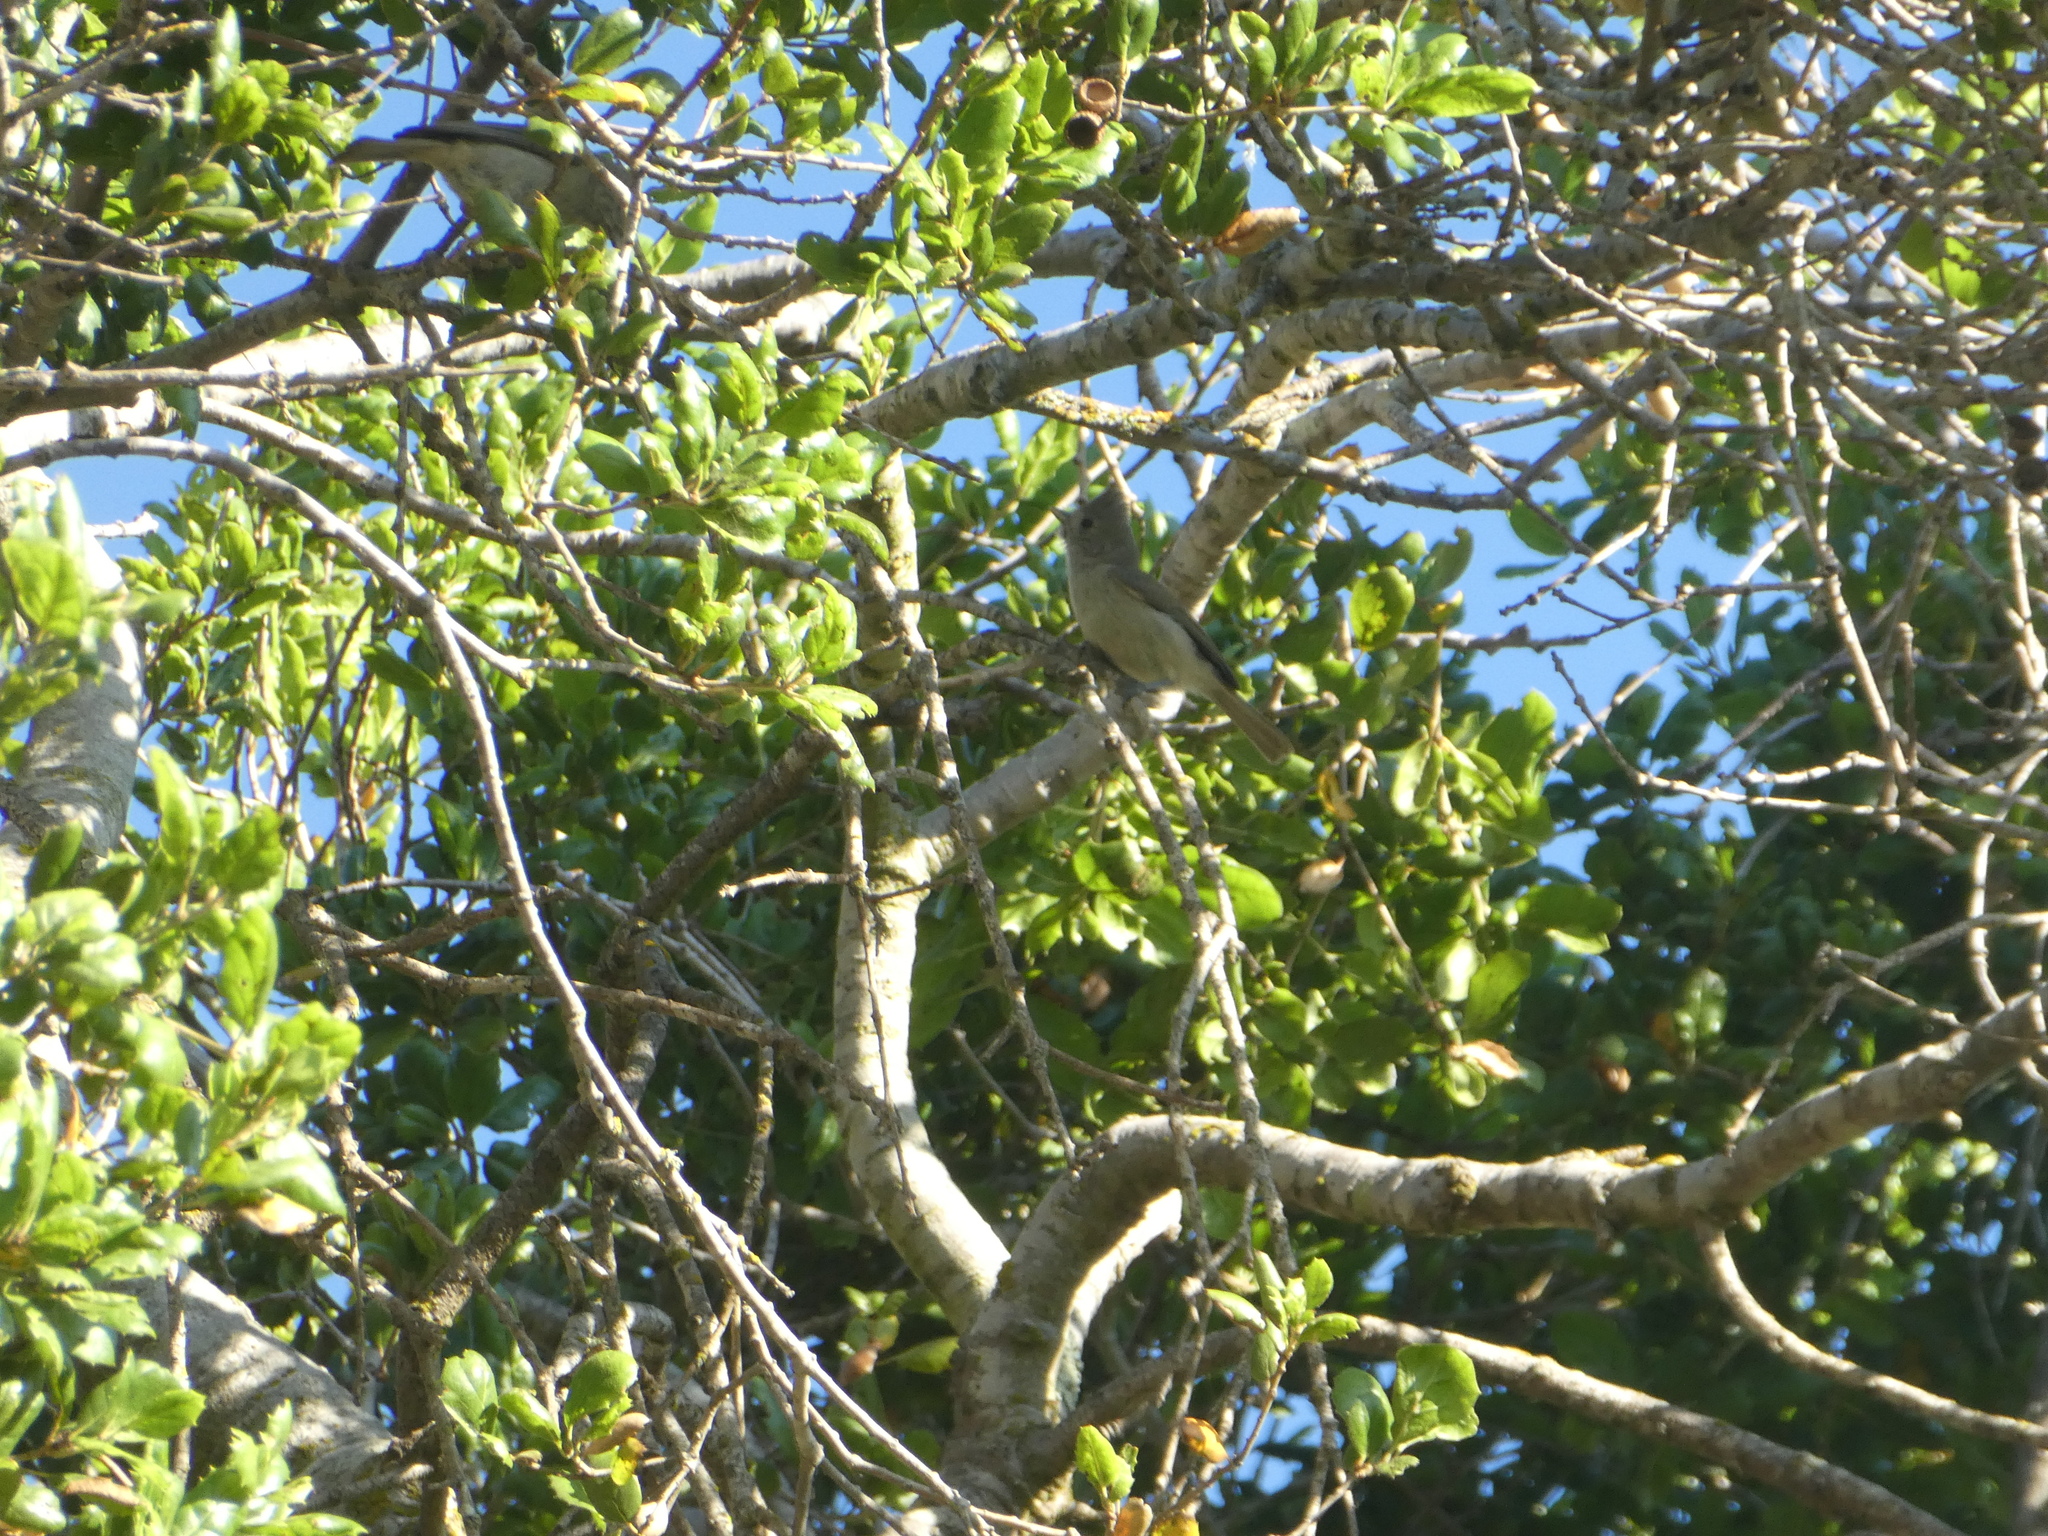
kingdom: Animalia
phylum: Chordata
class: Aves
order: Passeriformes
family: Paridae
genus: Baeolophus
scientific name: Baeolophus inornatus
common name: Oak titmouse
